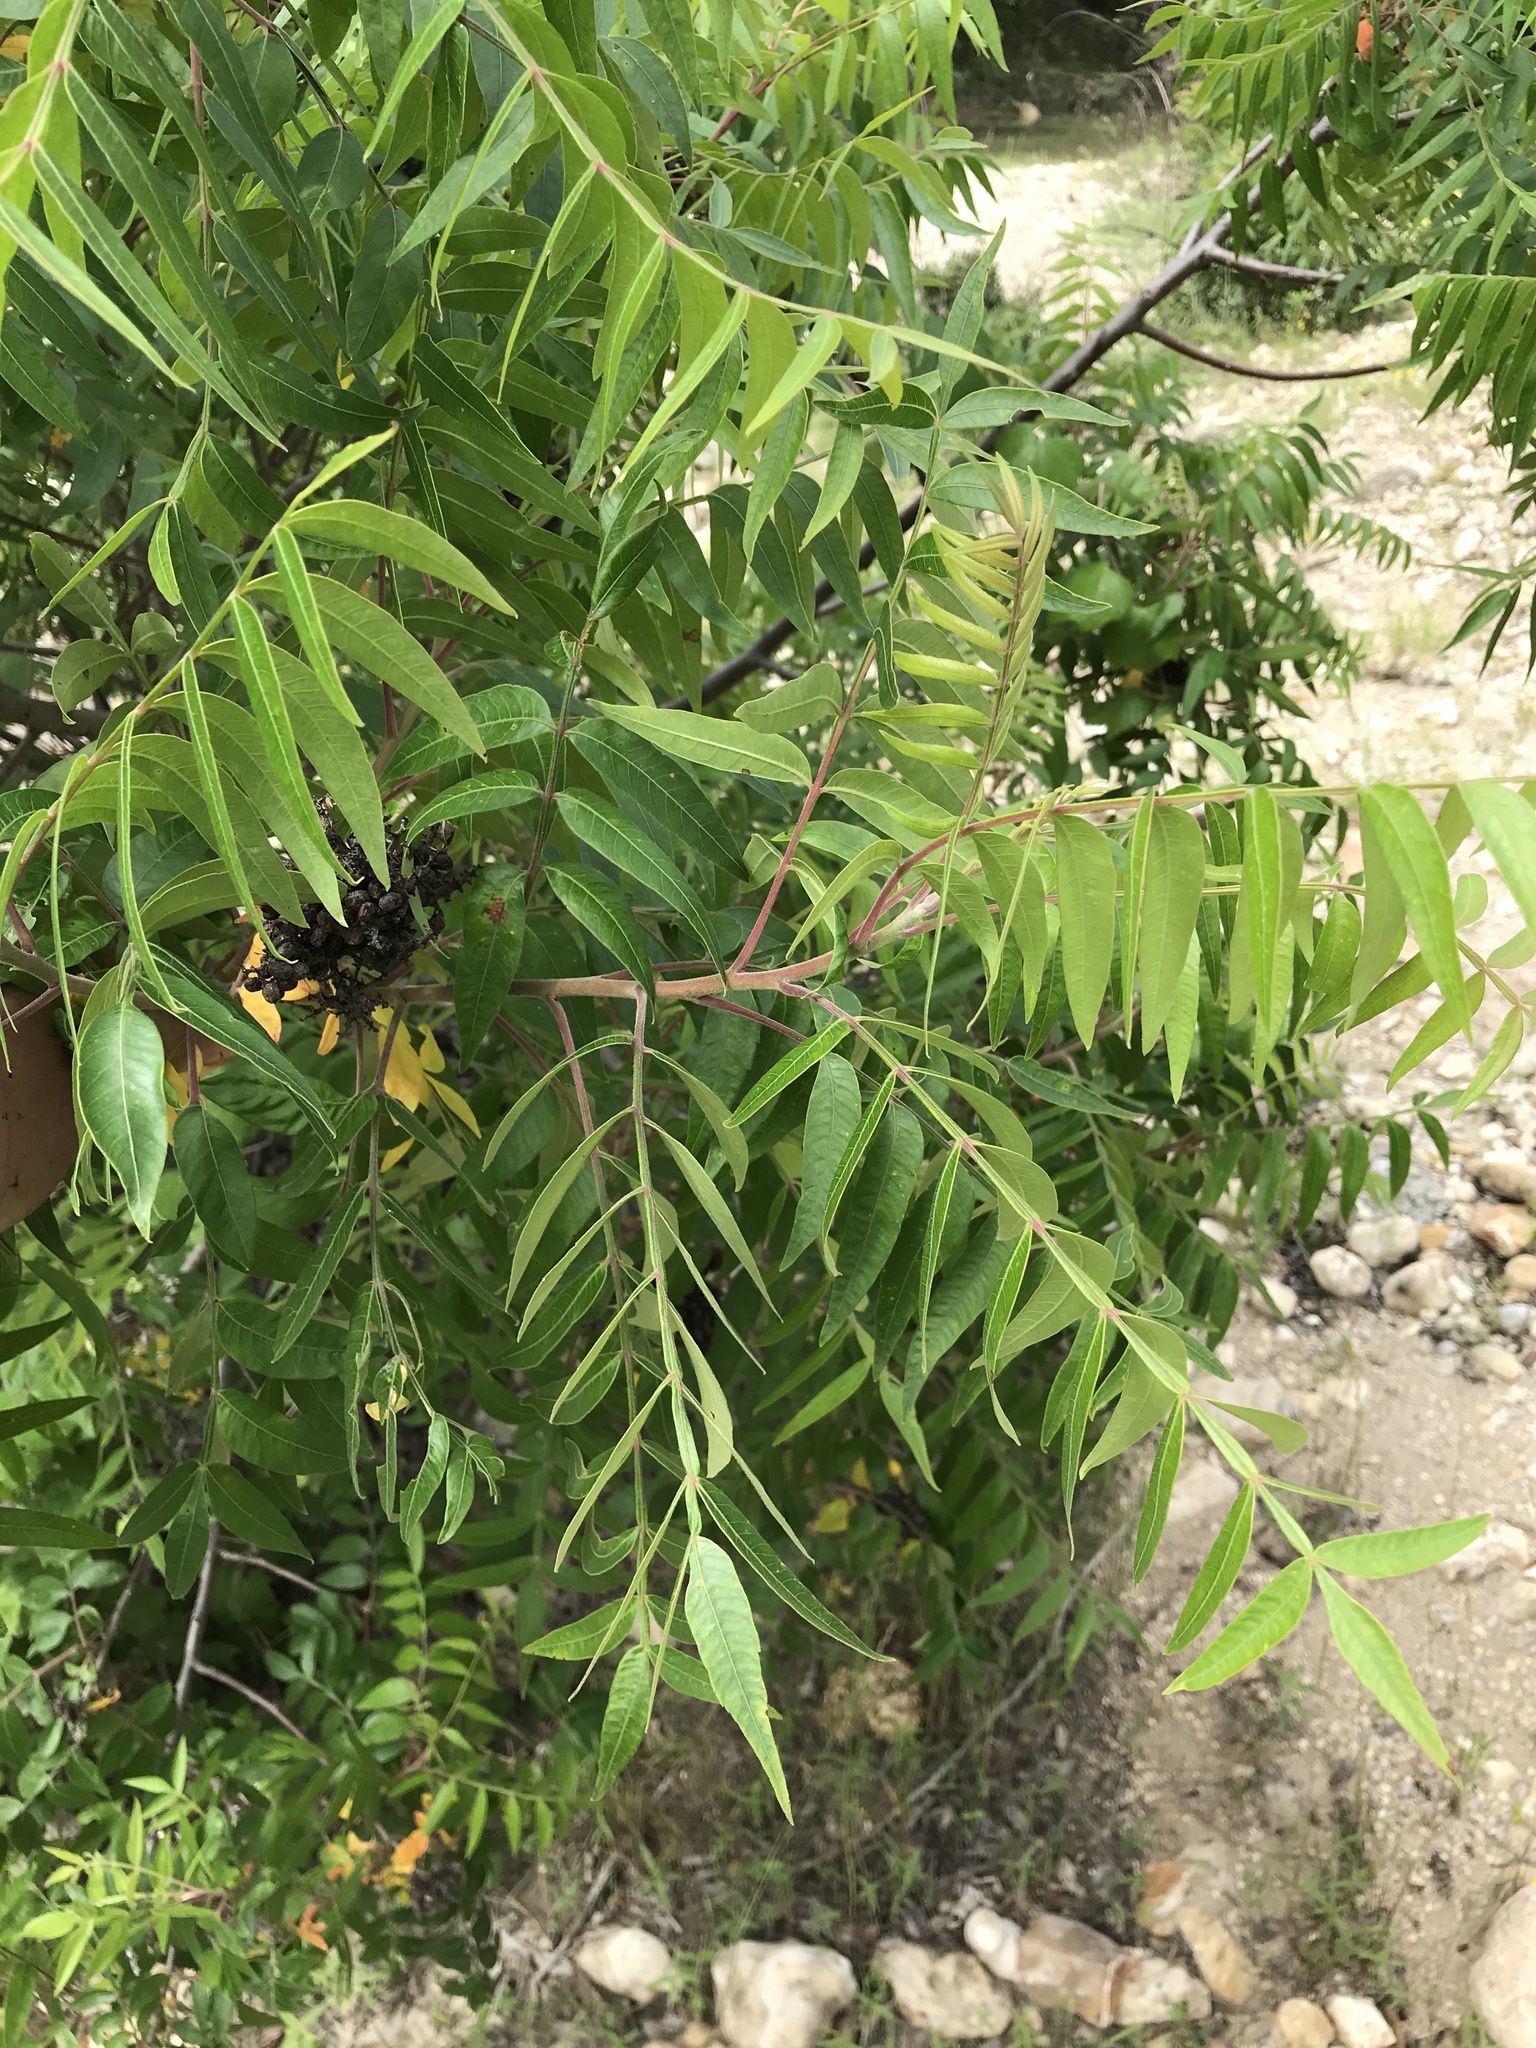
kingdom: Plantae
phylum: Tracheophyta
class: Magnoliopsida
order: Sapindales
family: Anacardiaceae
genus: Rhus
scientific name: Rhus lanceolata
